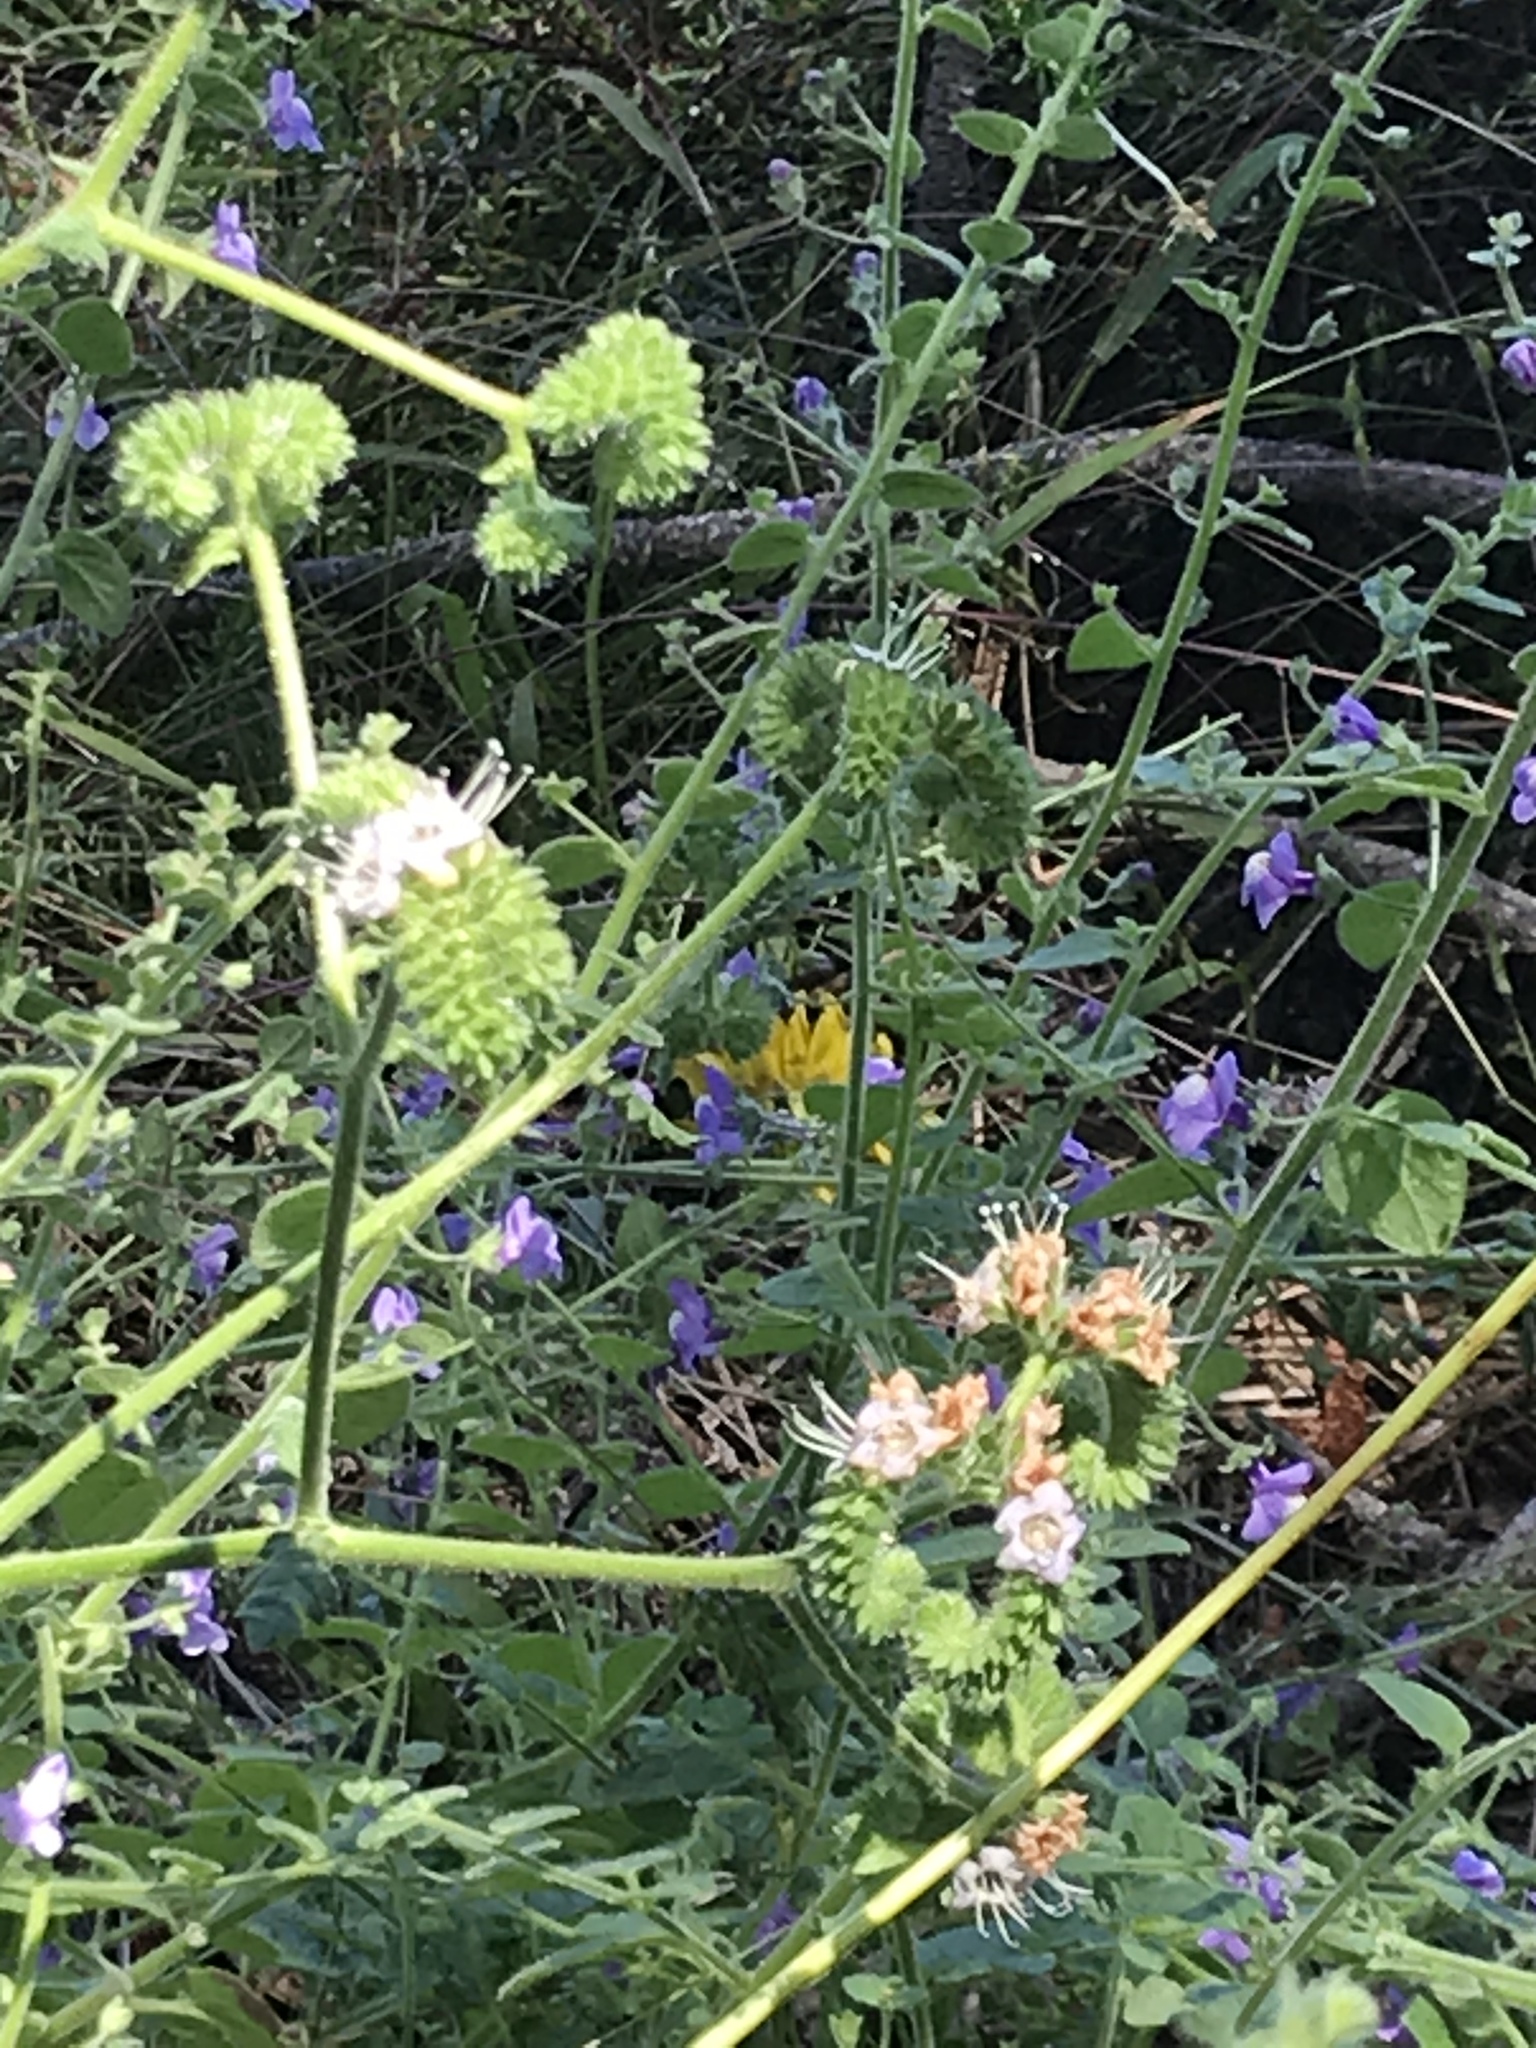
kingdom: Plantae
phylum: Tracheophyta
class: Magnoliopsida
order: Boraginales
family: Hydrophyllaceae
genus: Phacelia
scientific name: Phacelia ramosissima
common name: Branching phacelia
